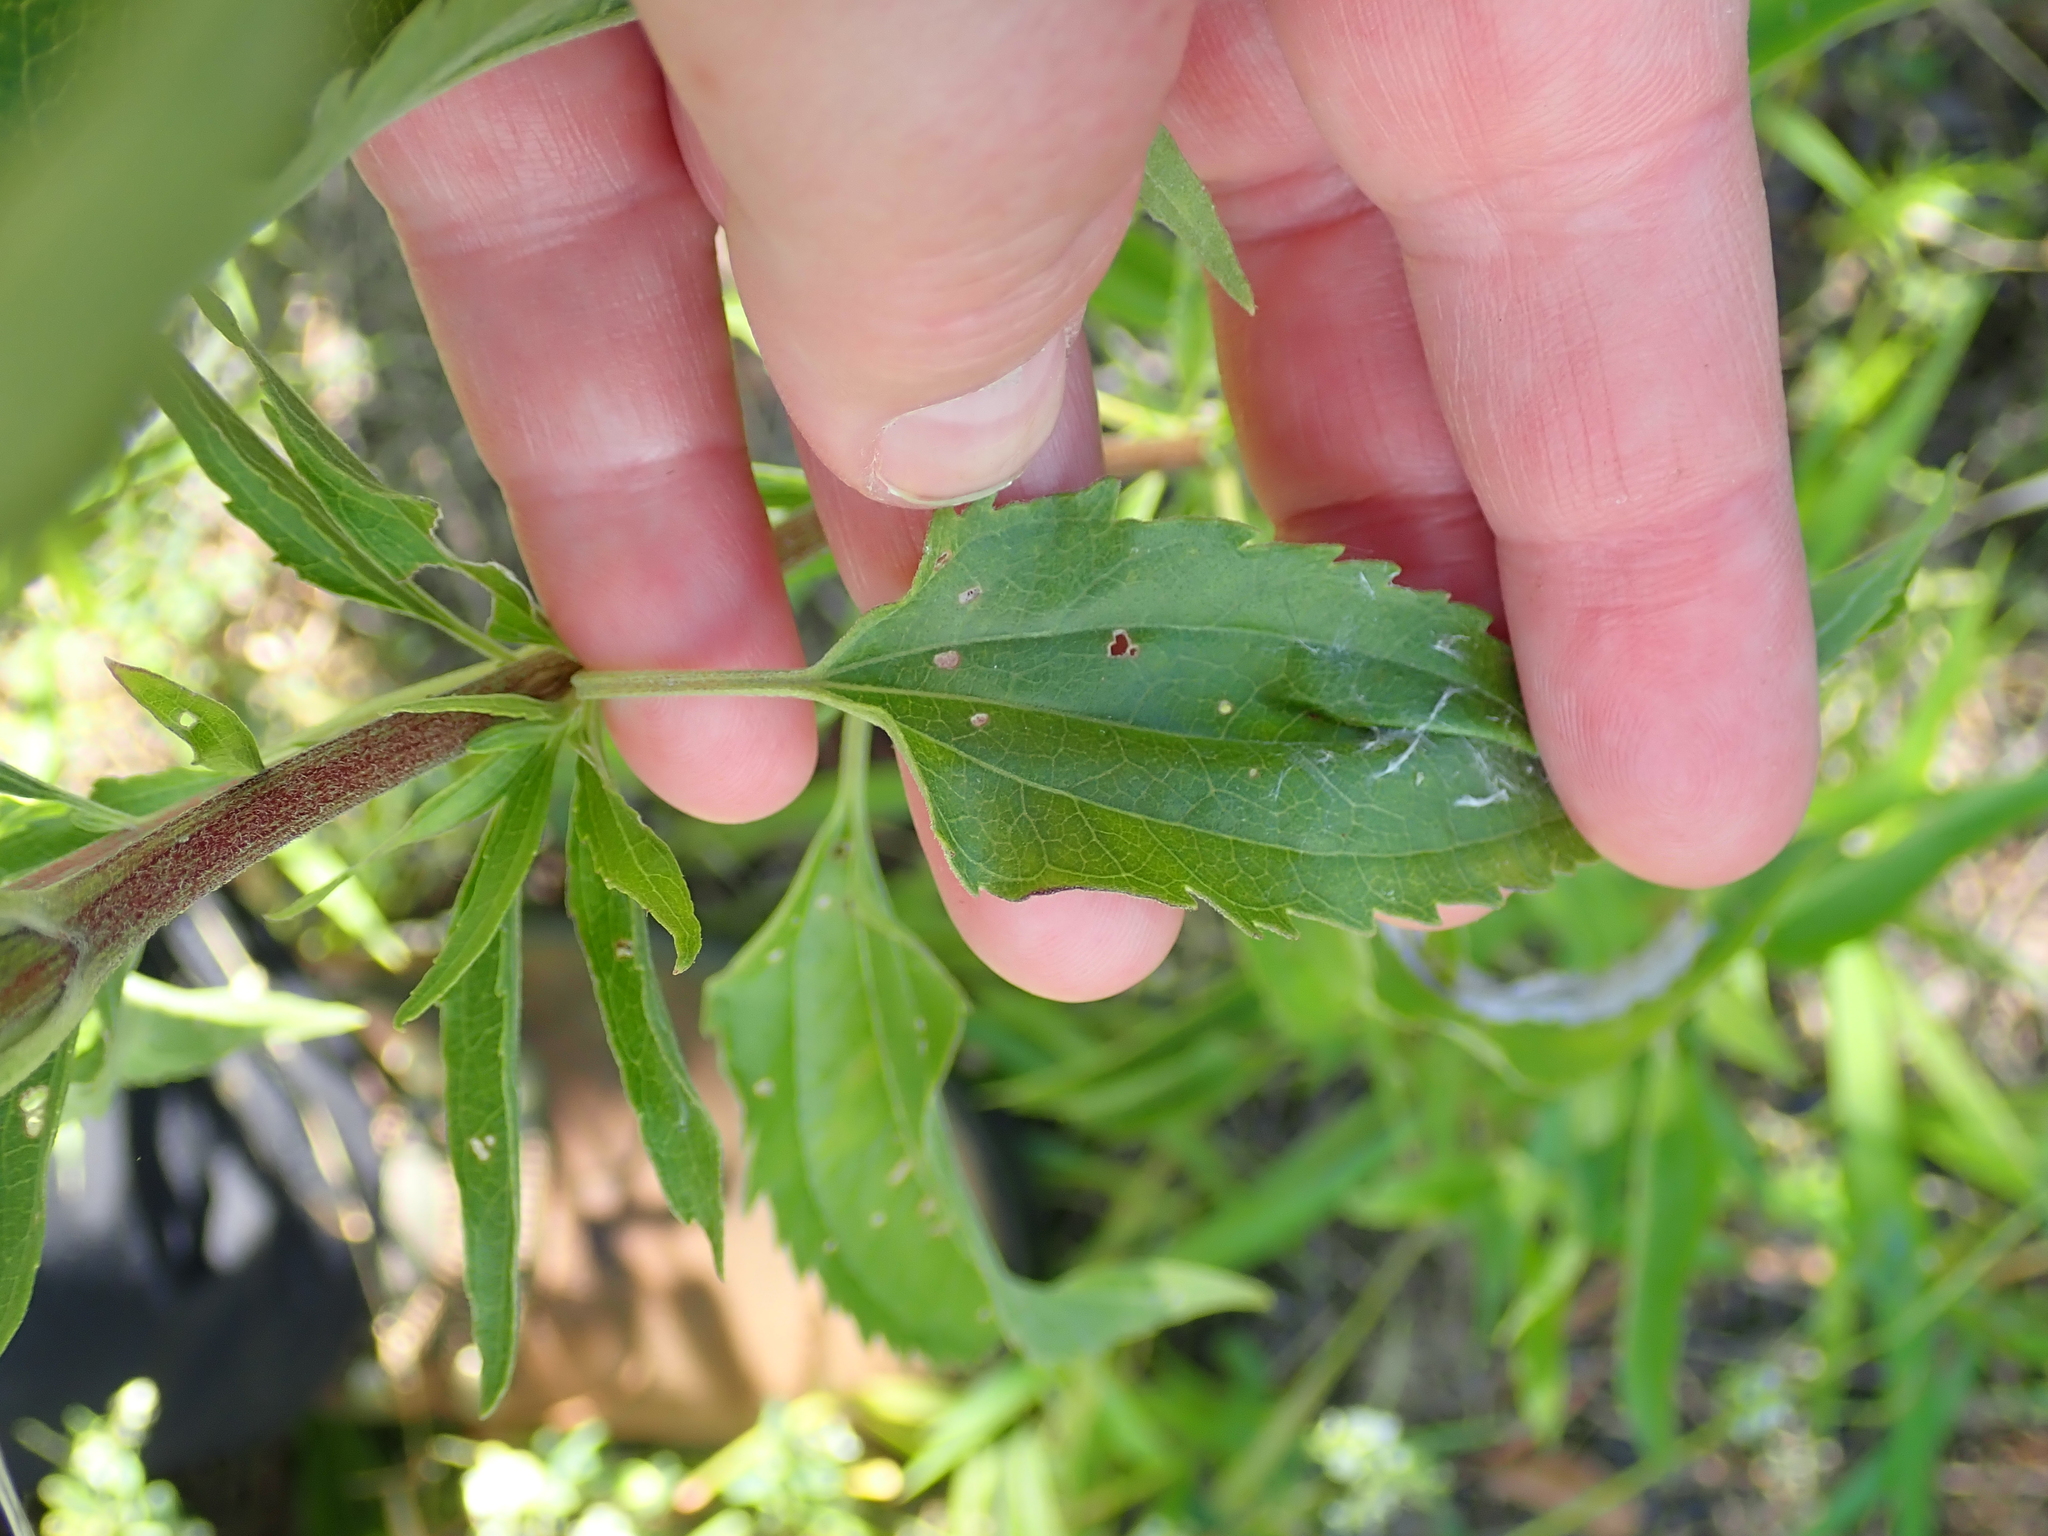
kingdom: Plantae
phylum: Tracheophyta
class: Magnoliopsida
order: Asterales
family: Asteraceae
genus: Eupatorium
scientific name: Eupatorium serotinum
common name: Late boneset
